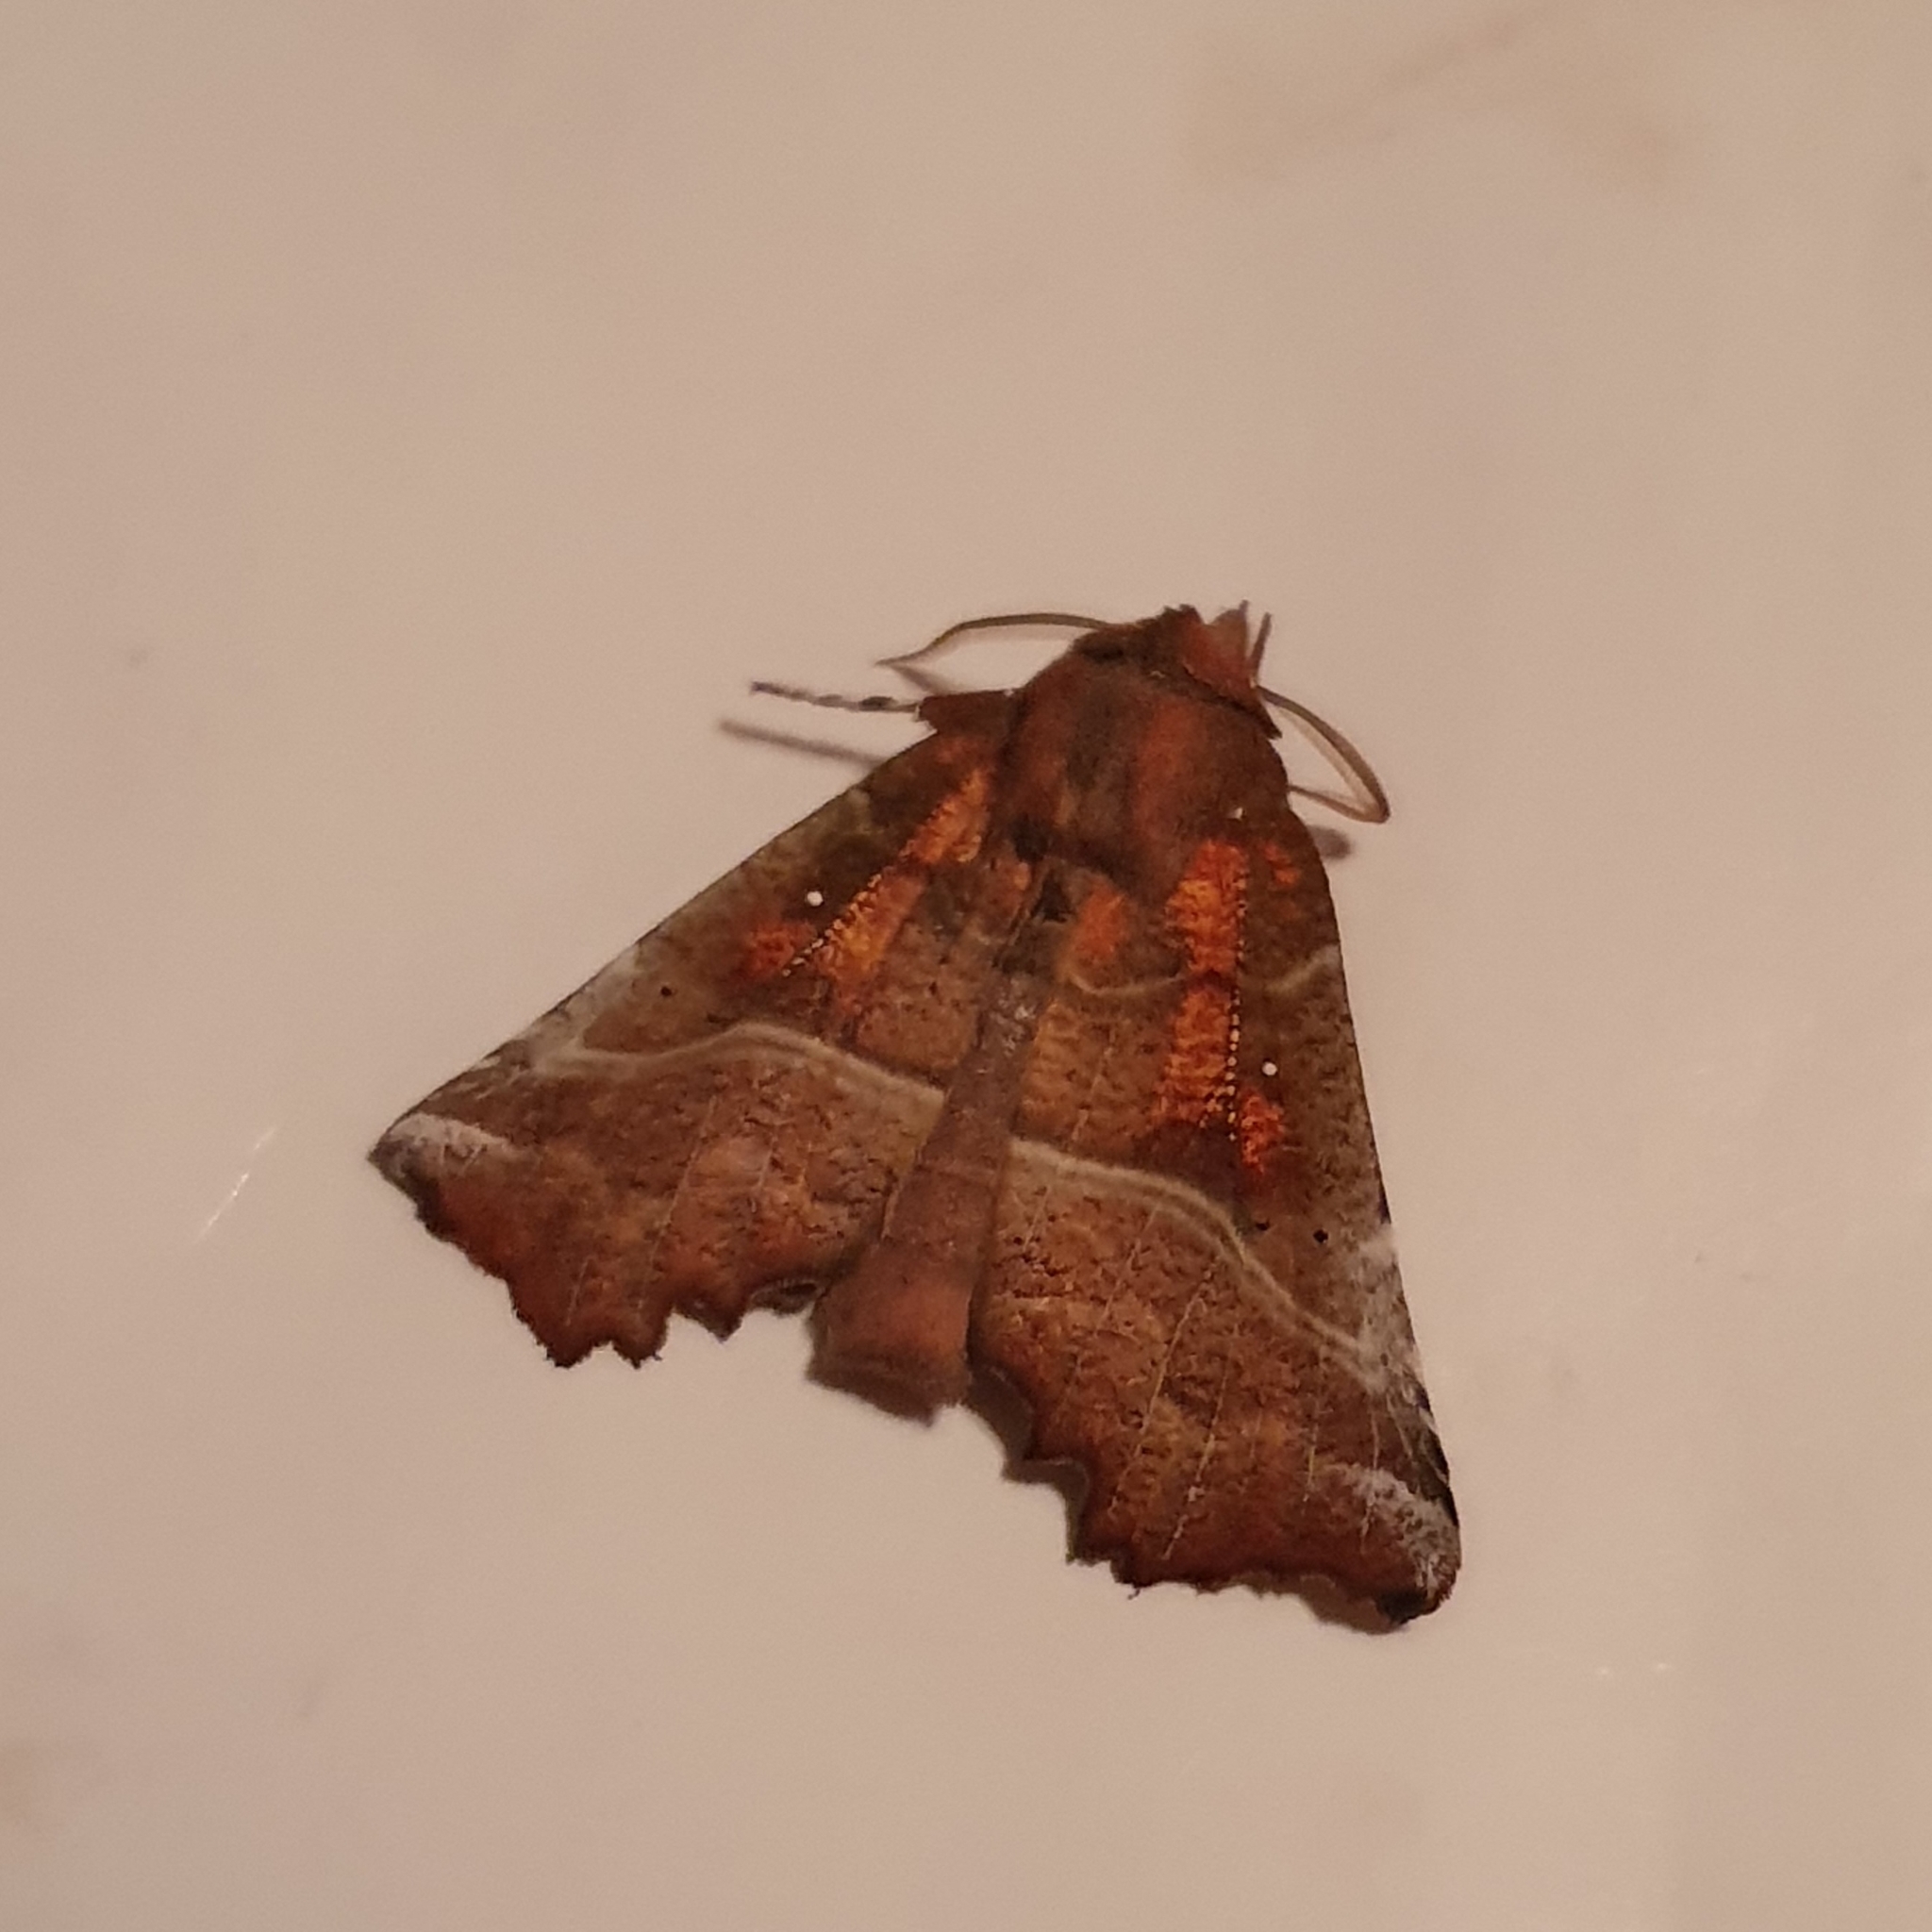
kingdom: Animalia
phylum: Arthropoda
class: Insecta
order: Lepidoptera
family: Erebidae
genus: Scoliopteryx
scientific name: Scoliopteryx libatrix
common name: Herald
